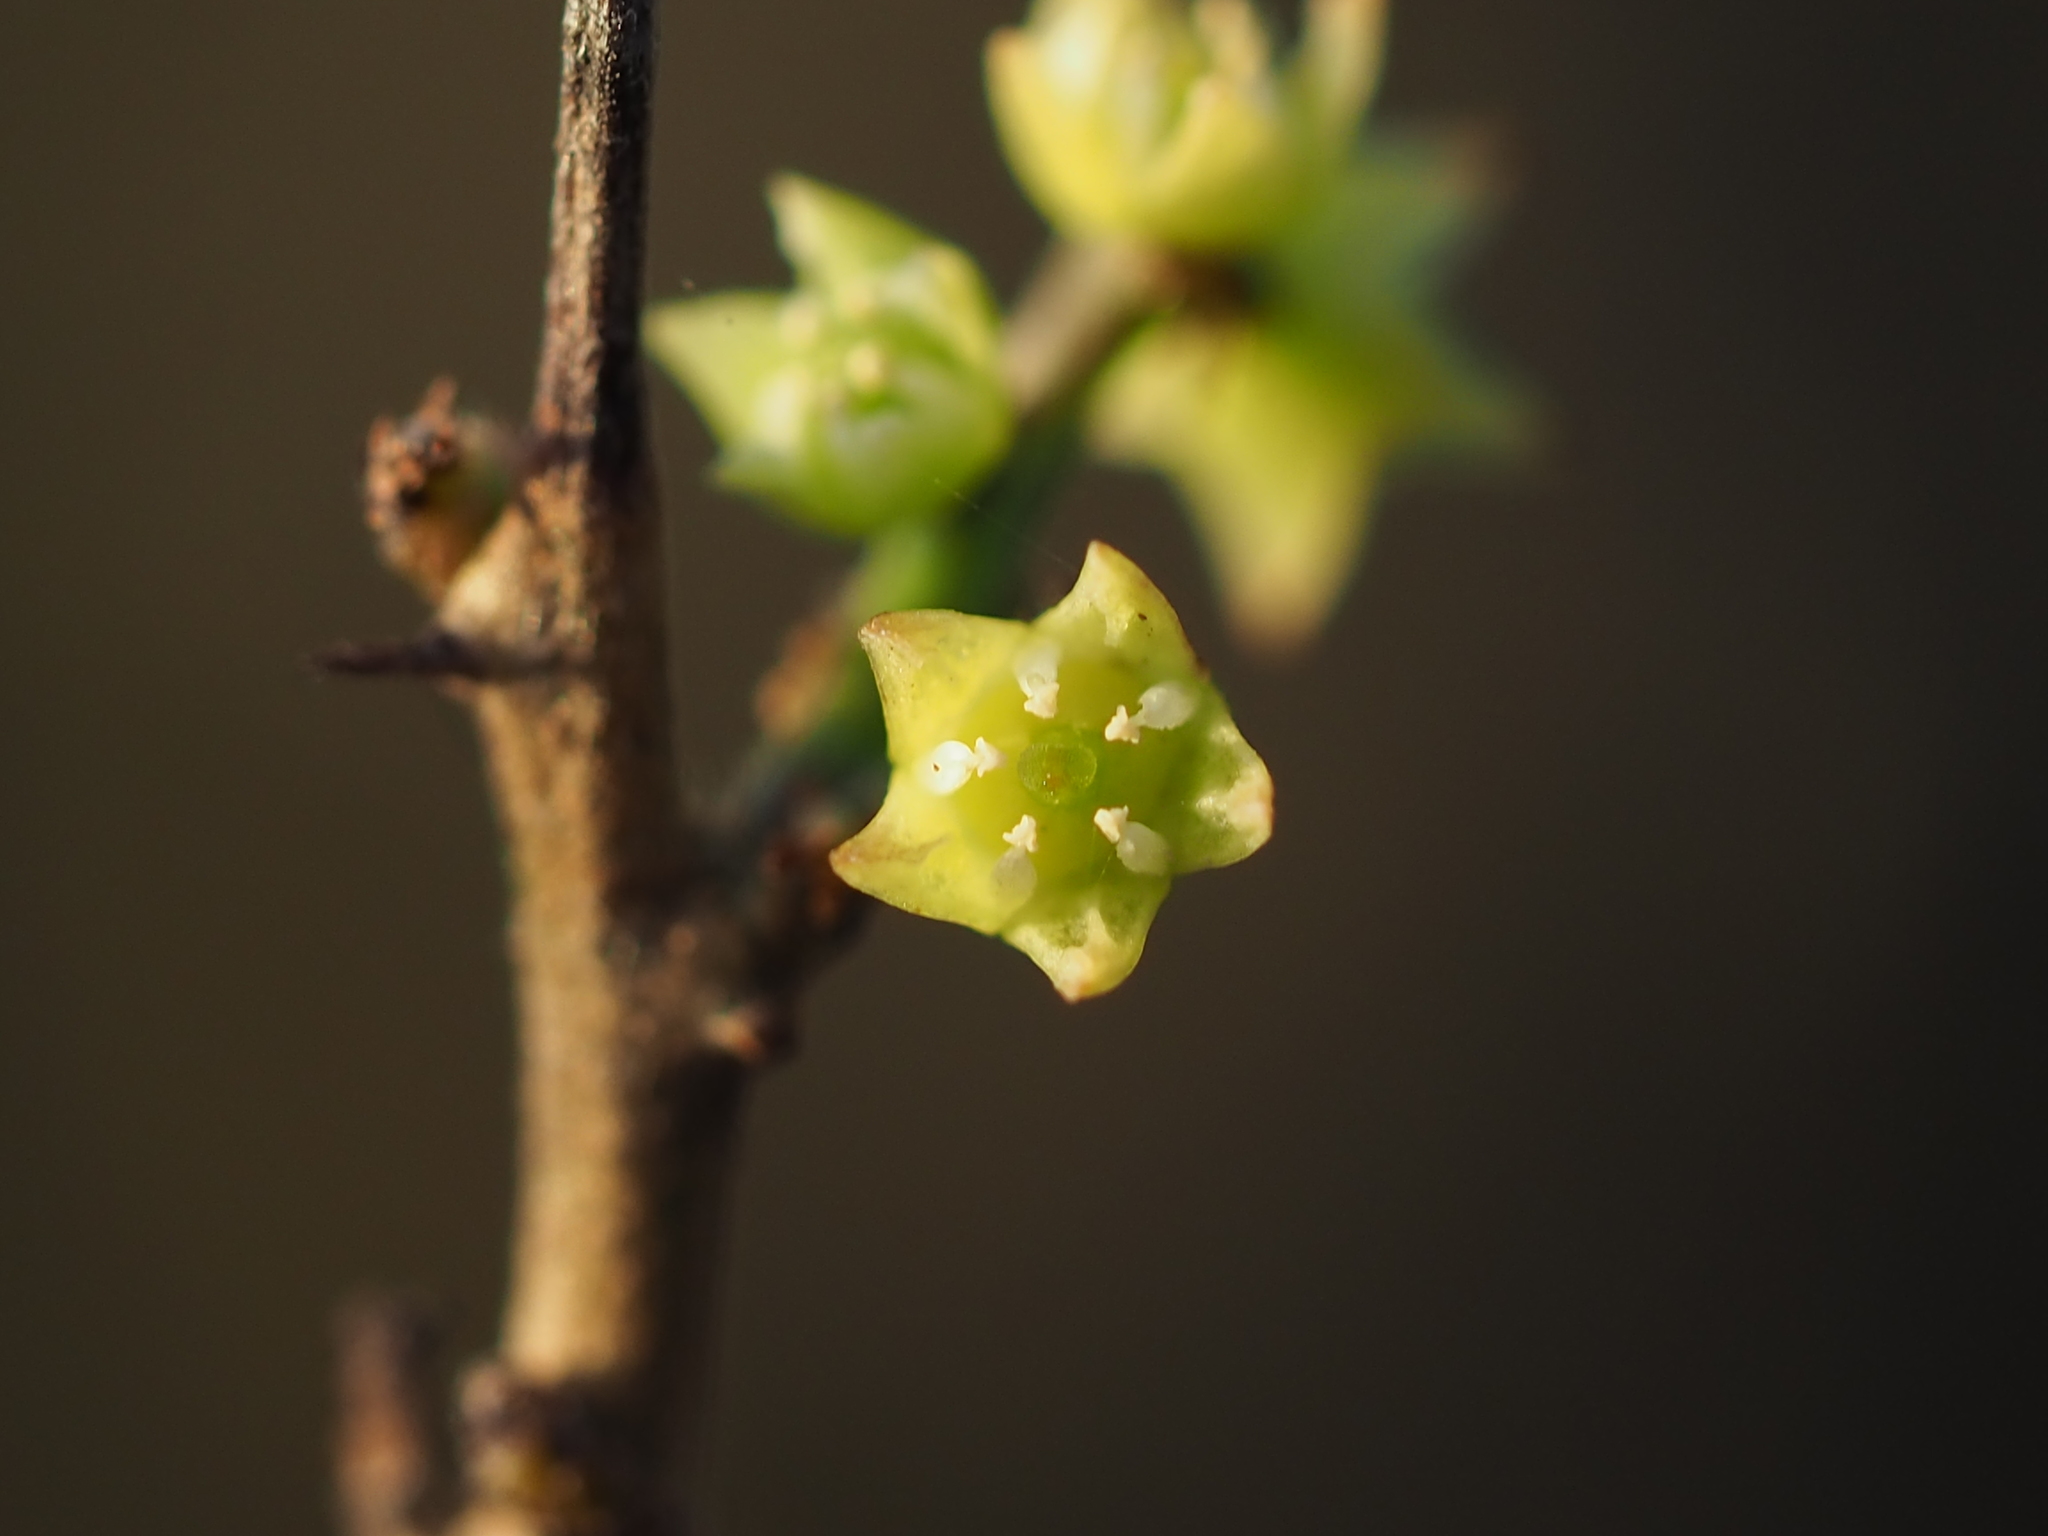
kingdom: Plantae
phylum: Tracheophyta
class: Magnoliopsida
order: Rosales
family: Rhamnaceae
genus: Sageretia
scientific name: Sageretia thea
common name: Pauper's-tea
